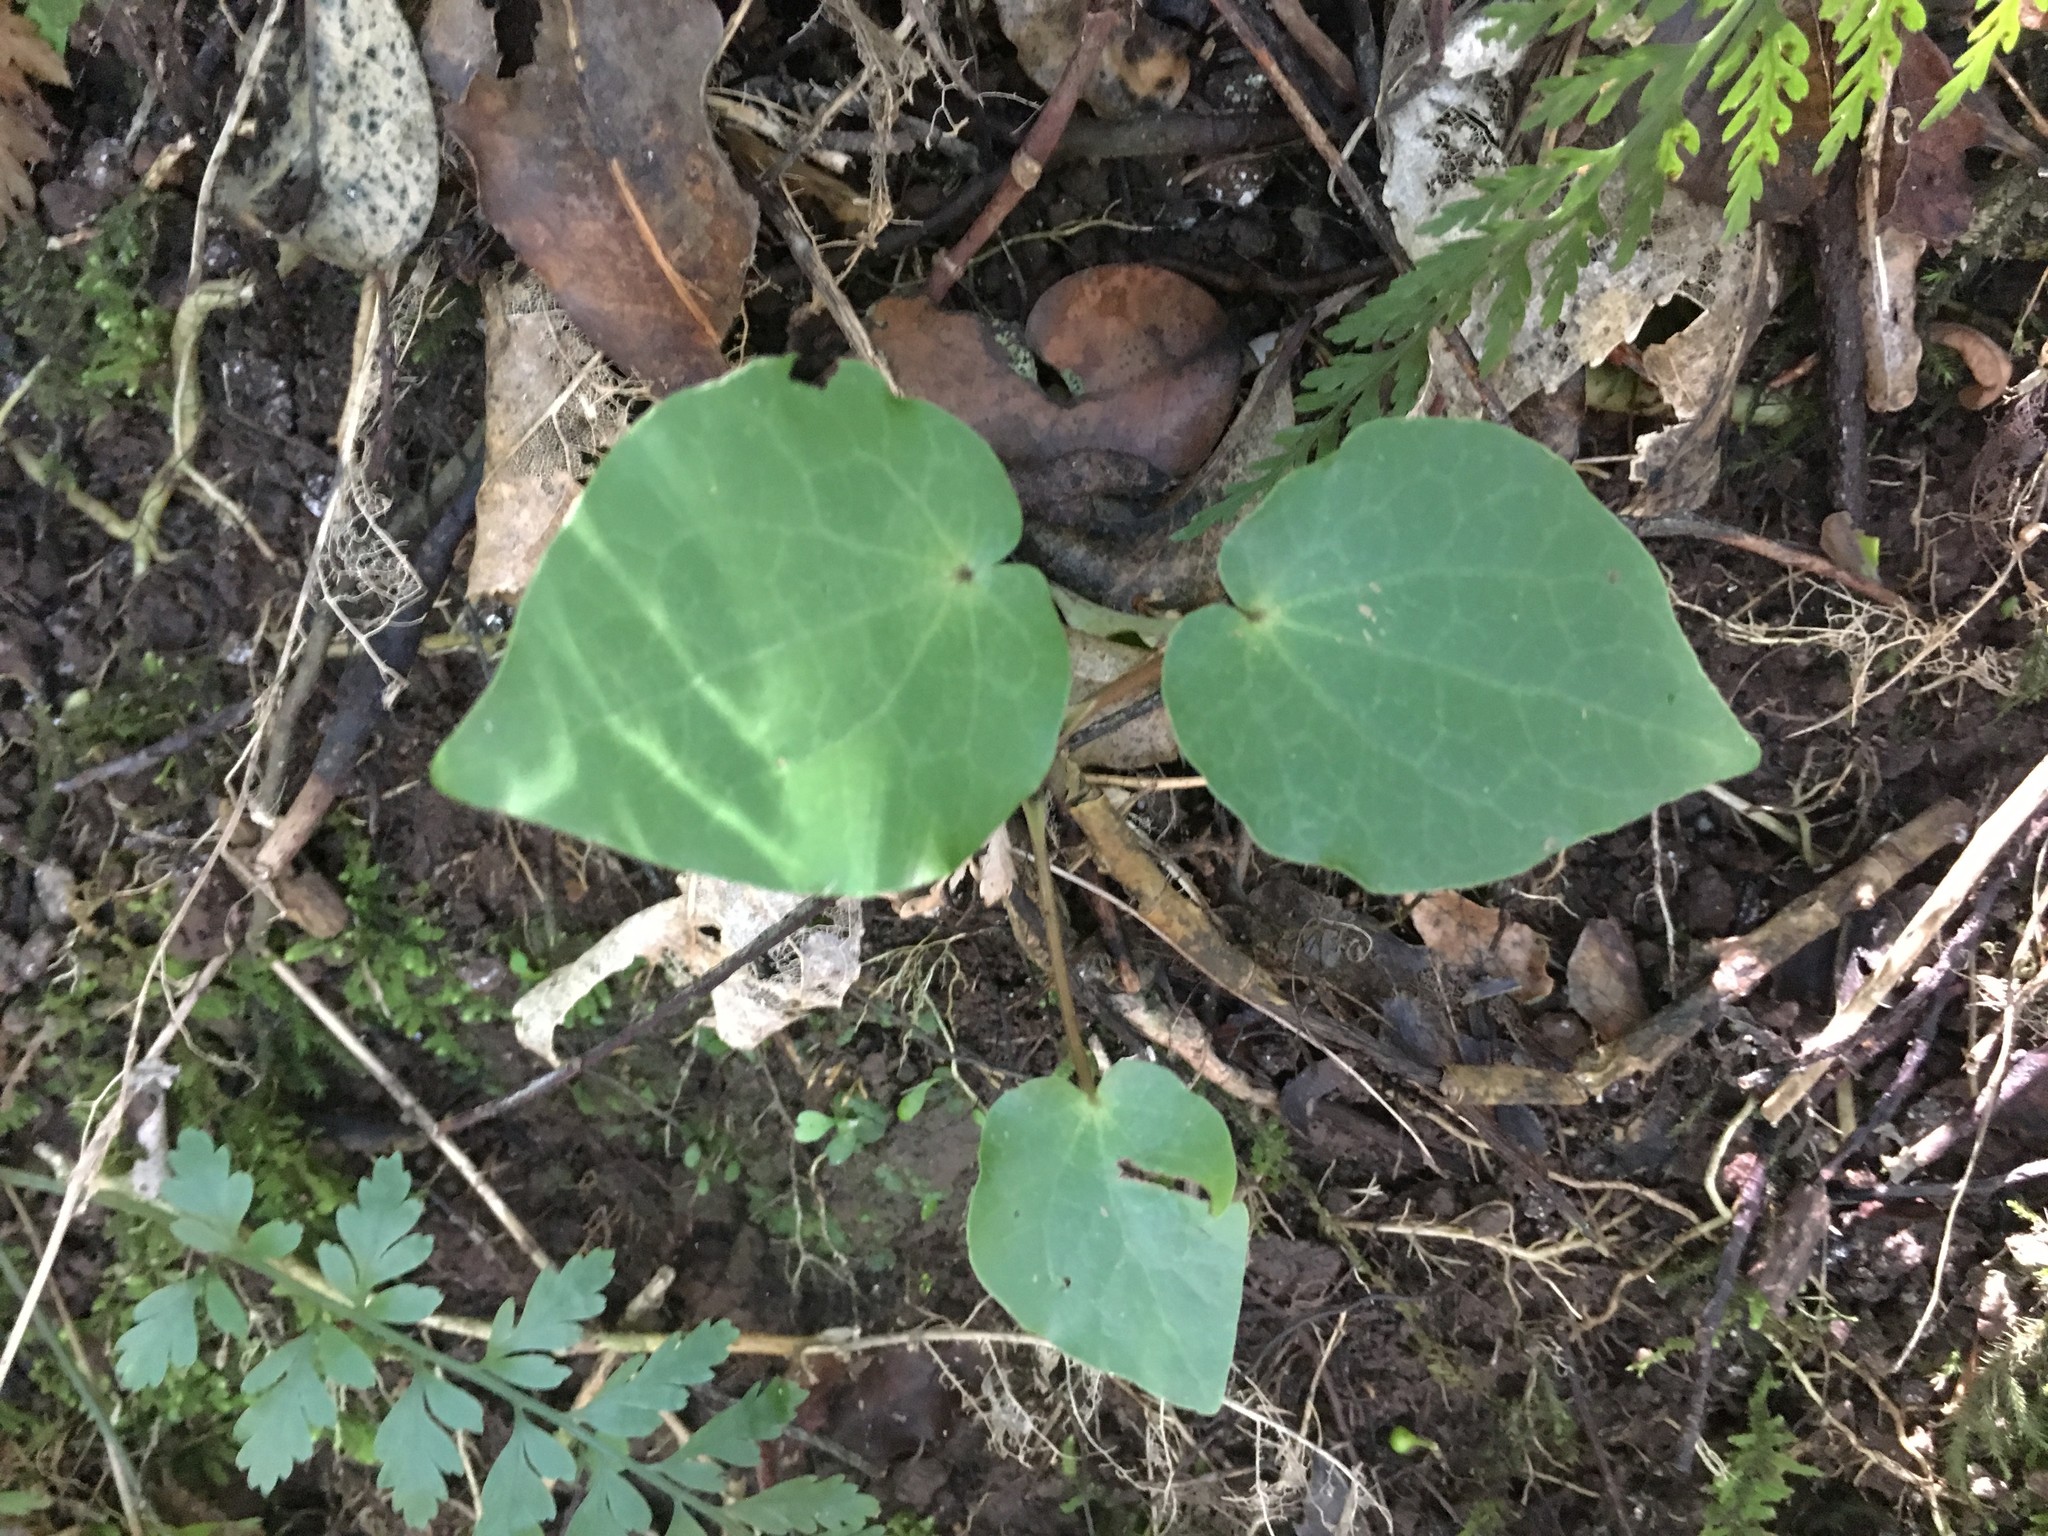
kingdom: Plantae
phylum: Tracheophyta
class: Magnoliopsida
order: Piperales
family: Piperaceae
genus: Macropiper
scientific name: Macropiper excelsum
